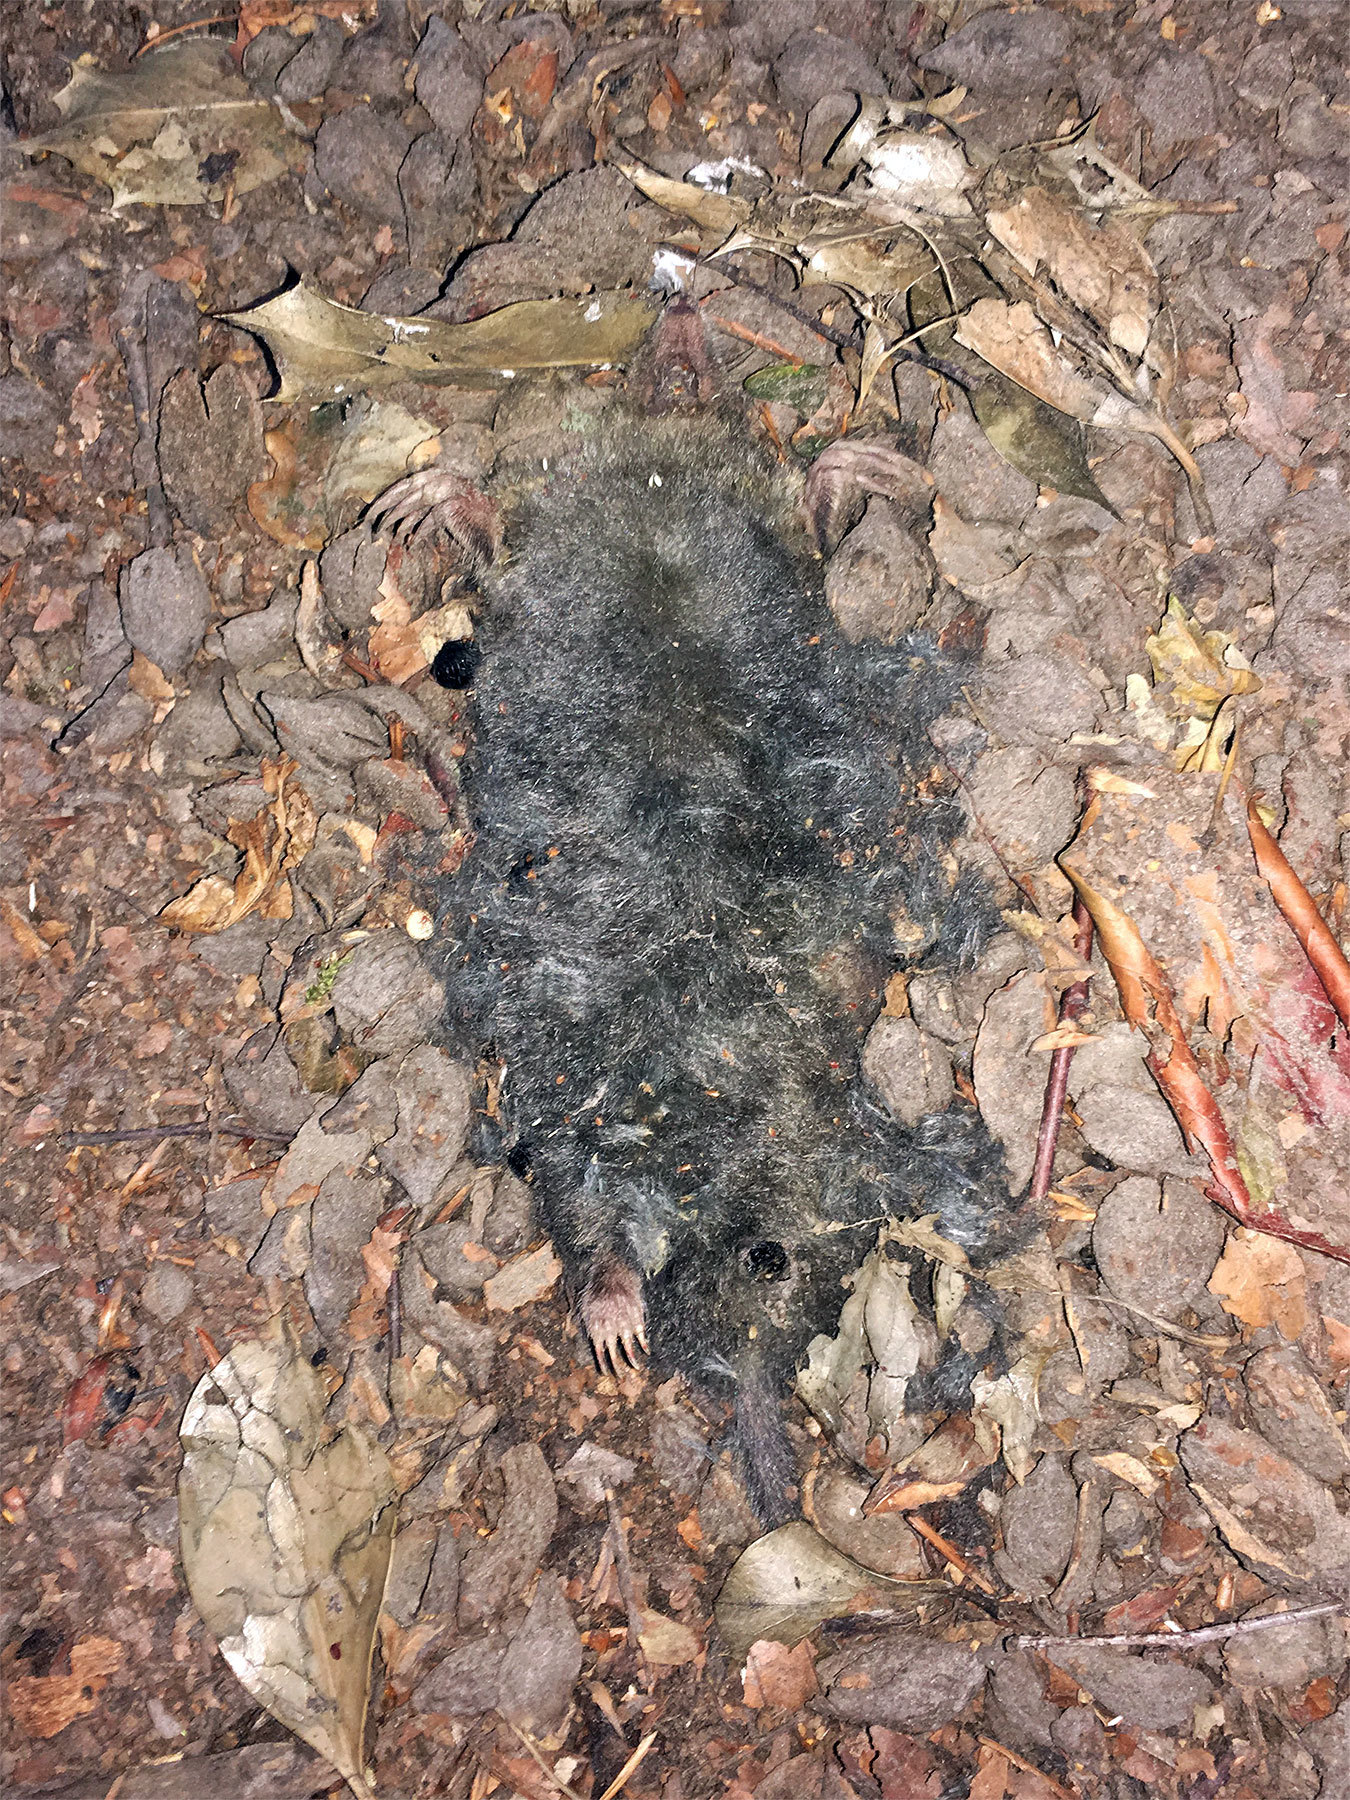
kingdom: Animalia
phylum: Chordata
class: Mammalia
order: Soricomorpha
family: Talpidae
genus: Talpa
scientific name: Talpa europaea
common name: European mole
